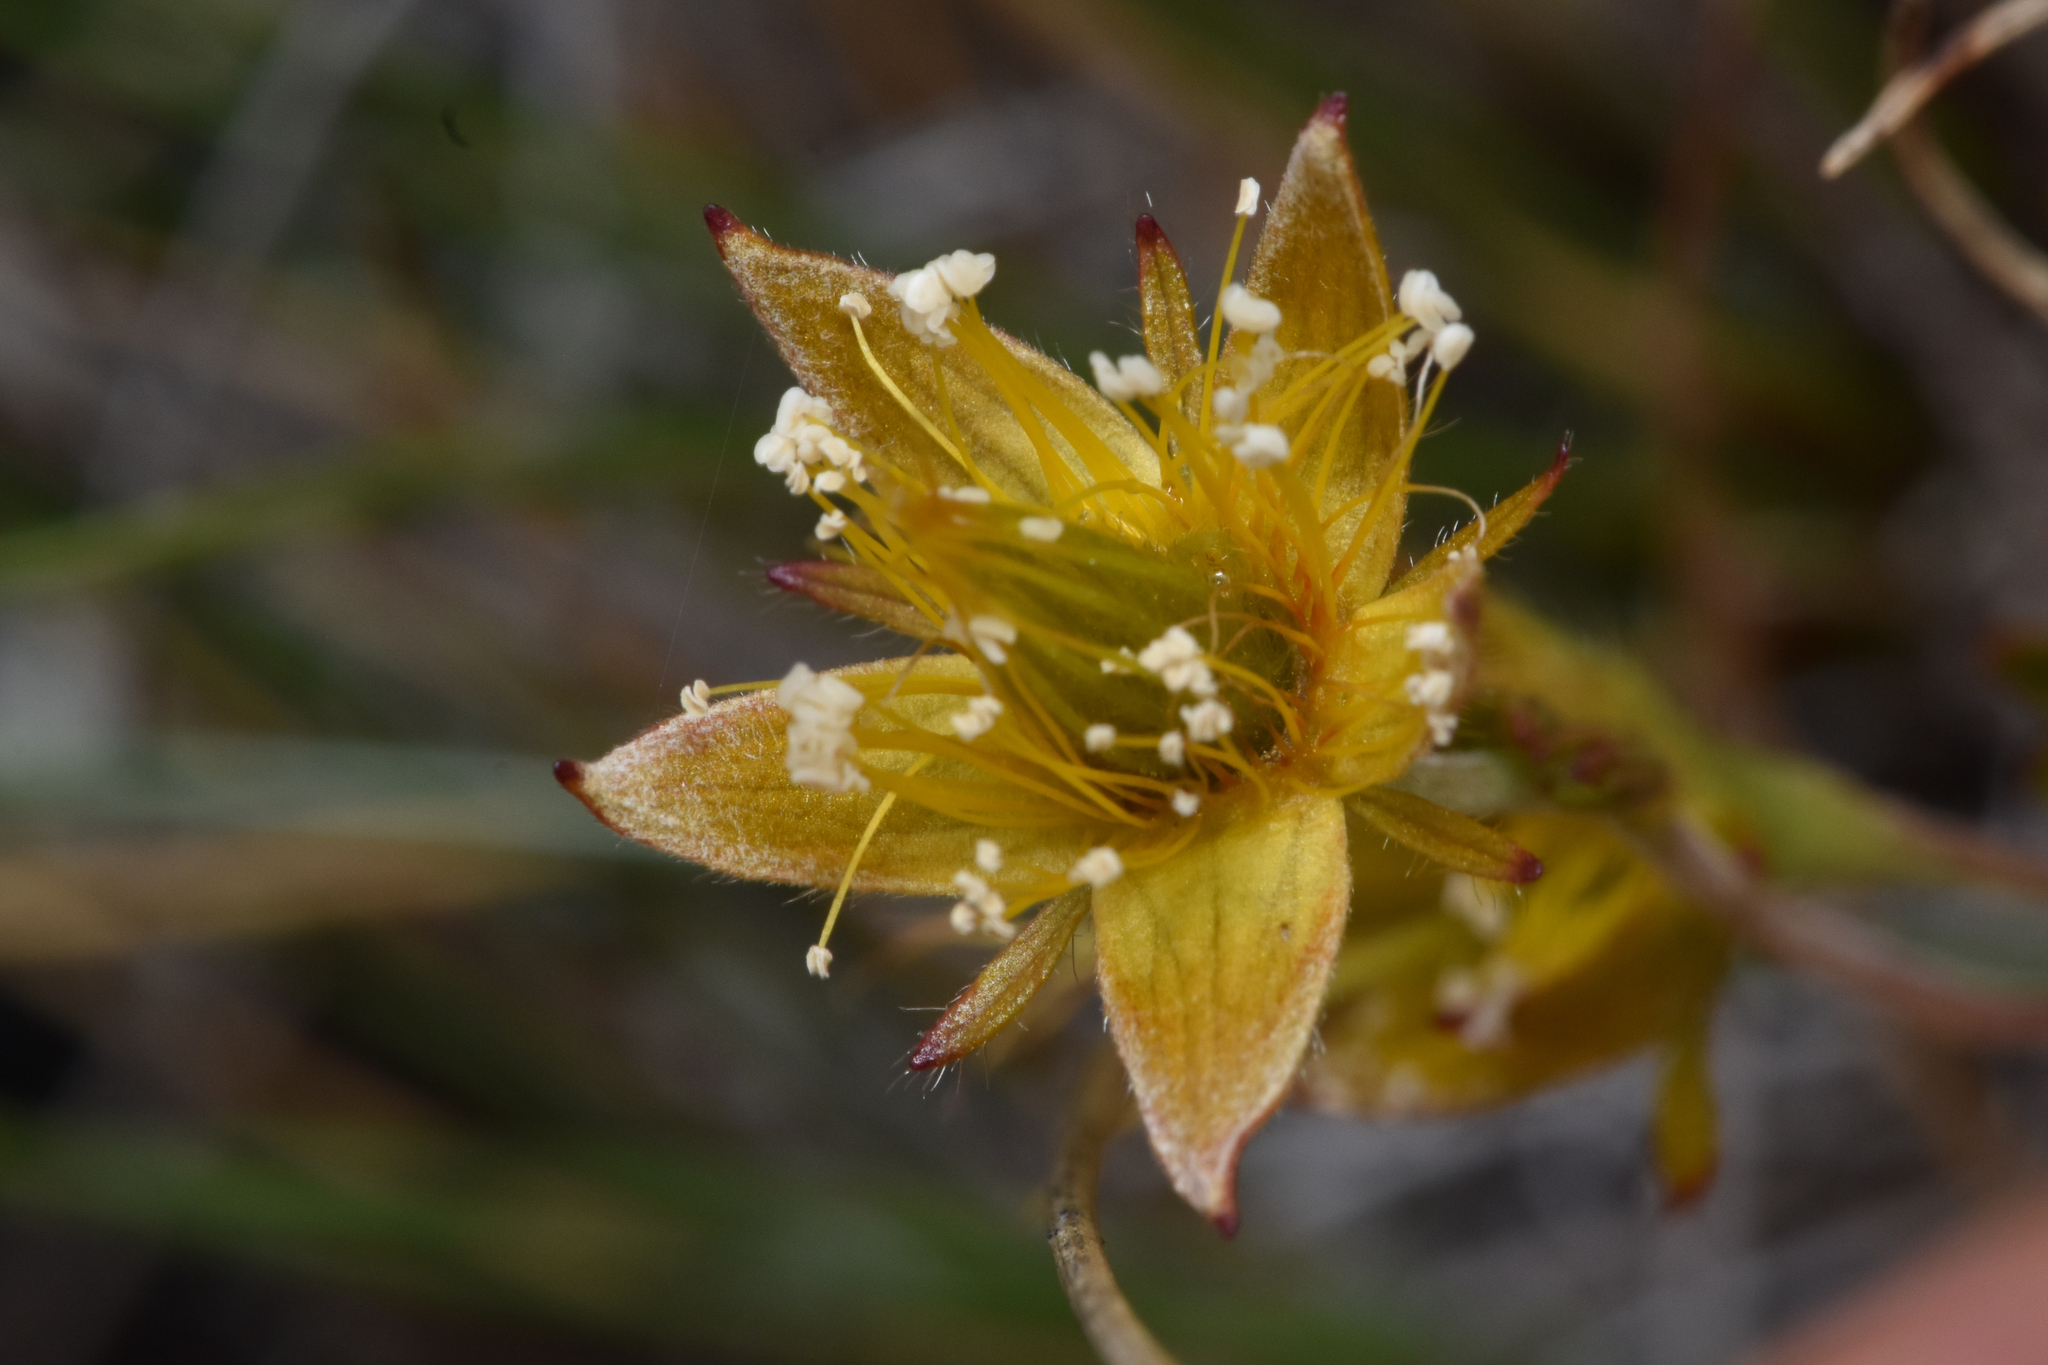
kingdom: Plantae
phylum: Tracheophyta
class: Magnoliopsida
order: Rosales
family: Rosaceae
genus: Geum
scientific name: Geum calthifolium
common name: Caltha-leaved avens
